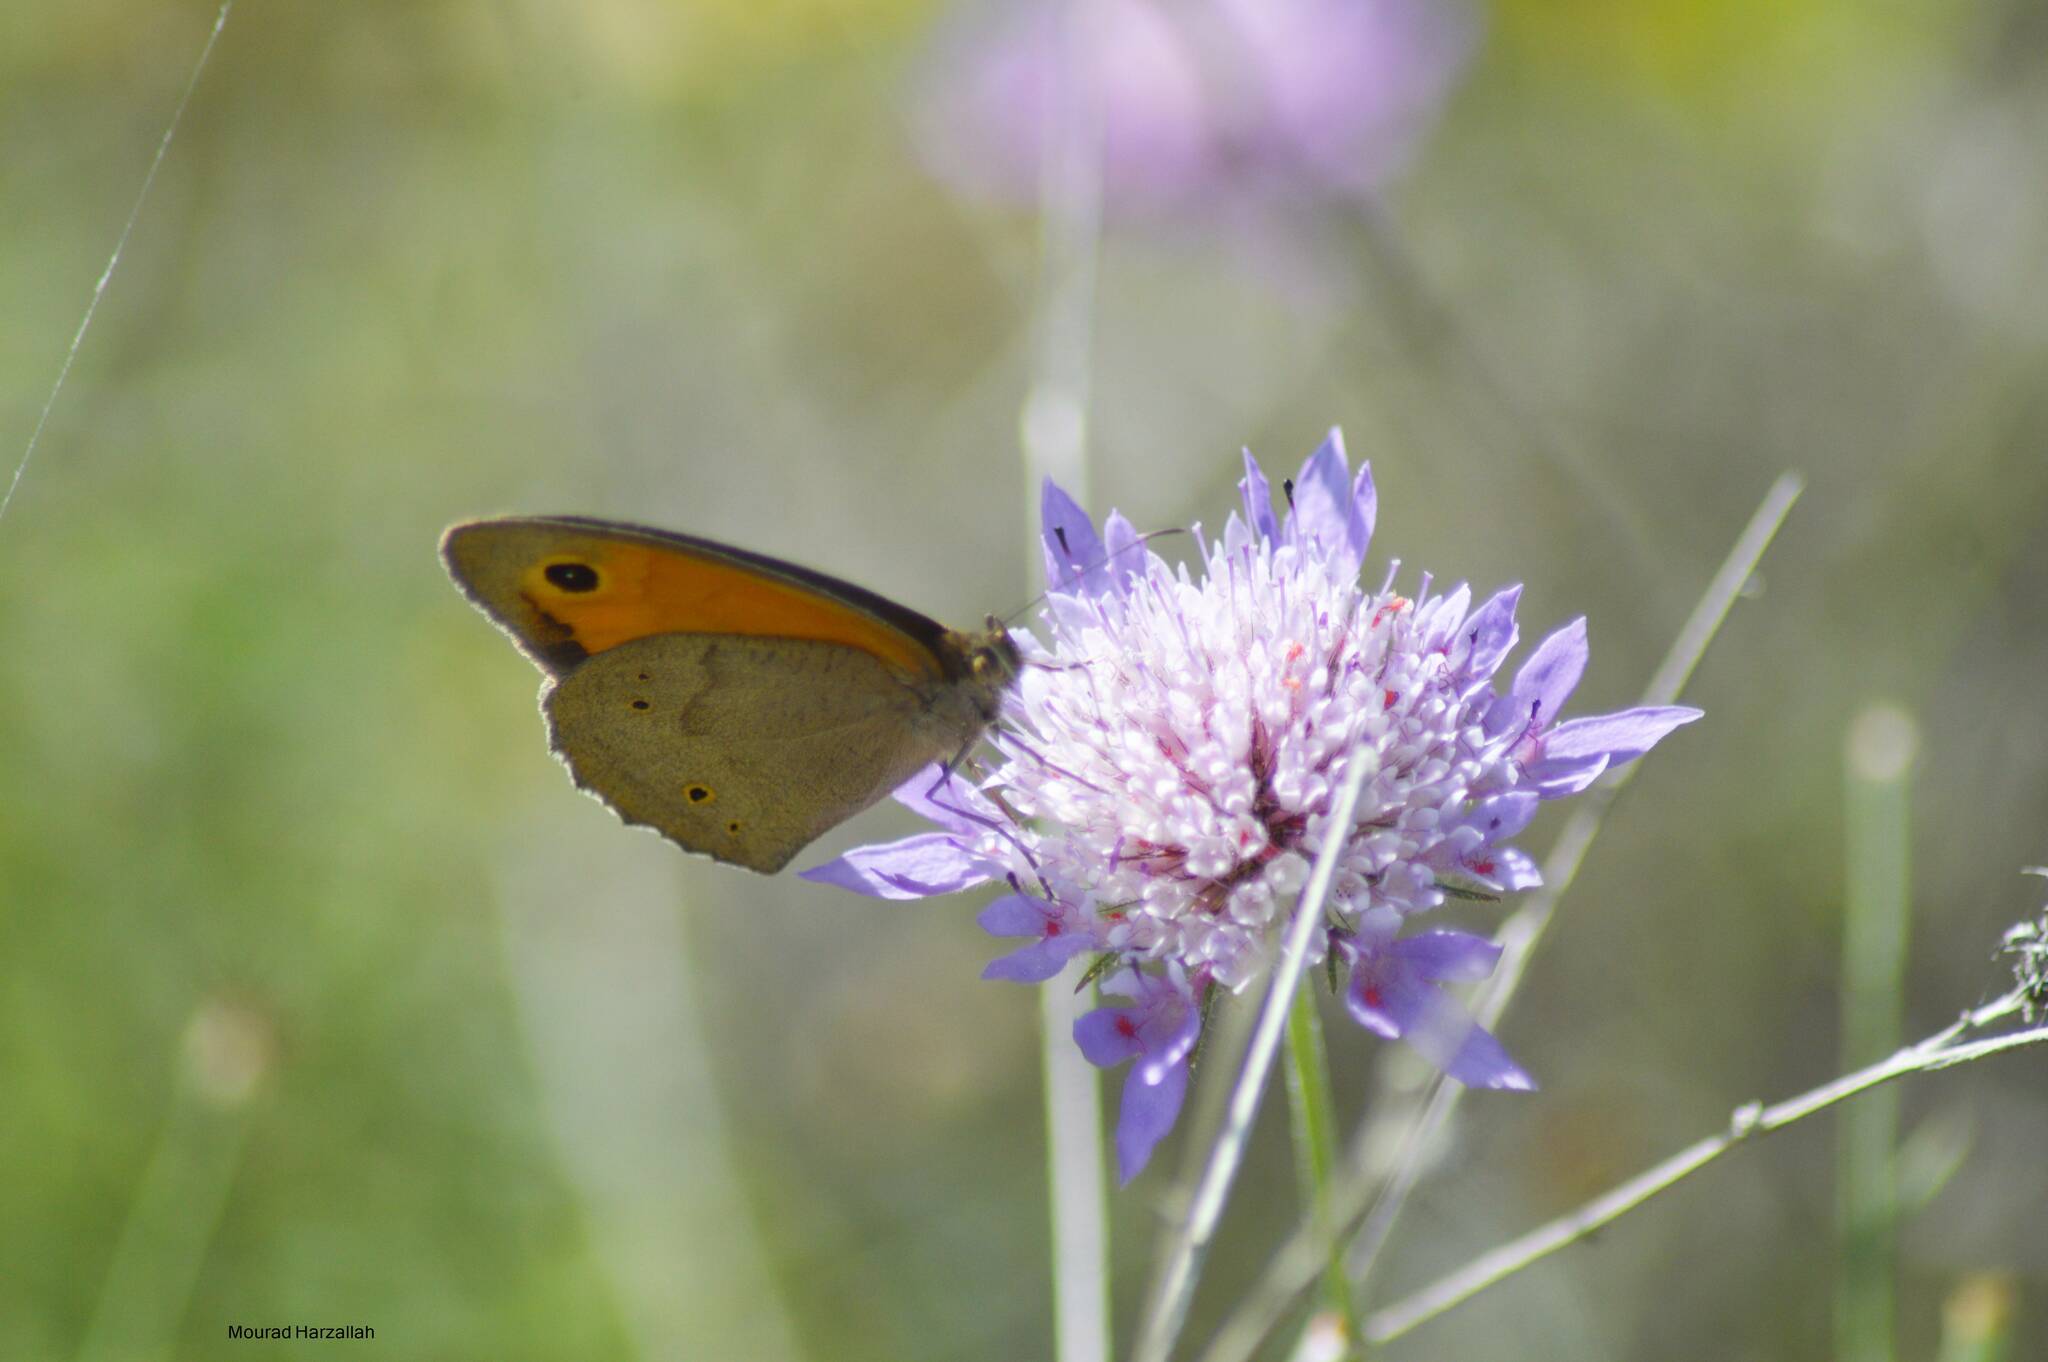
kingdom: Animalia
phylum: Arthropoda
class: Insecta
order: Lepidoptera
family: Nymphalidae
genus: Maniola
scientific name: Maniola jurtina
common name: Meadow brown
